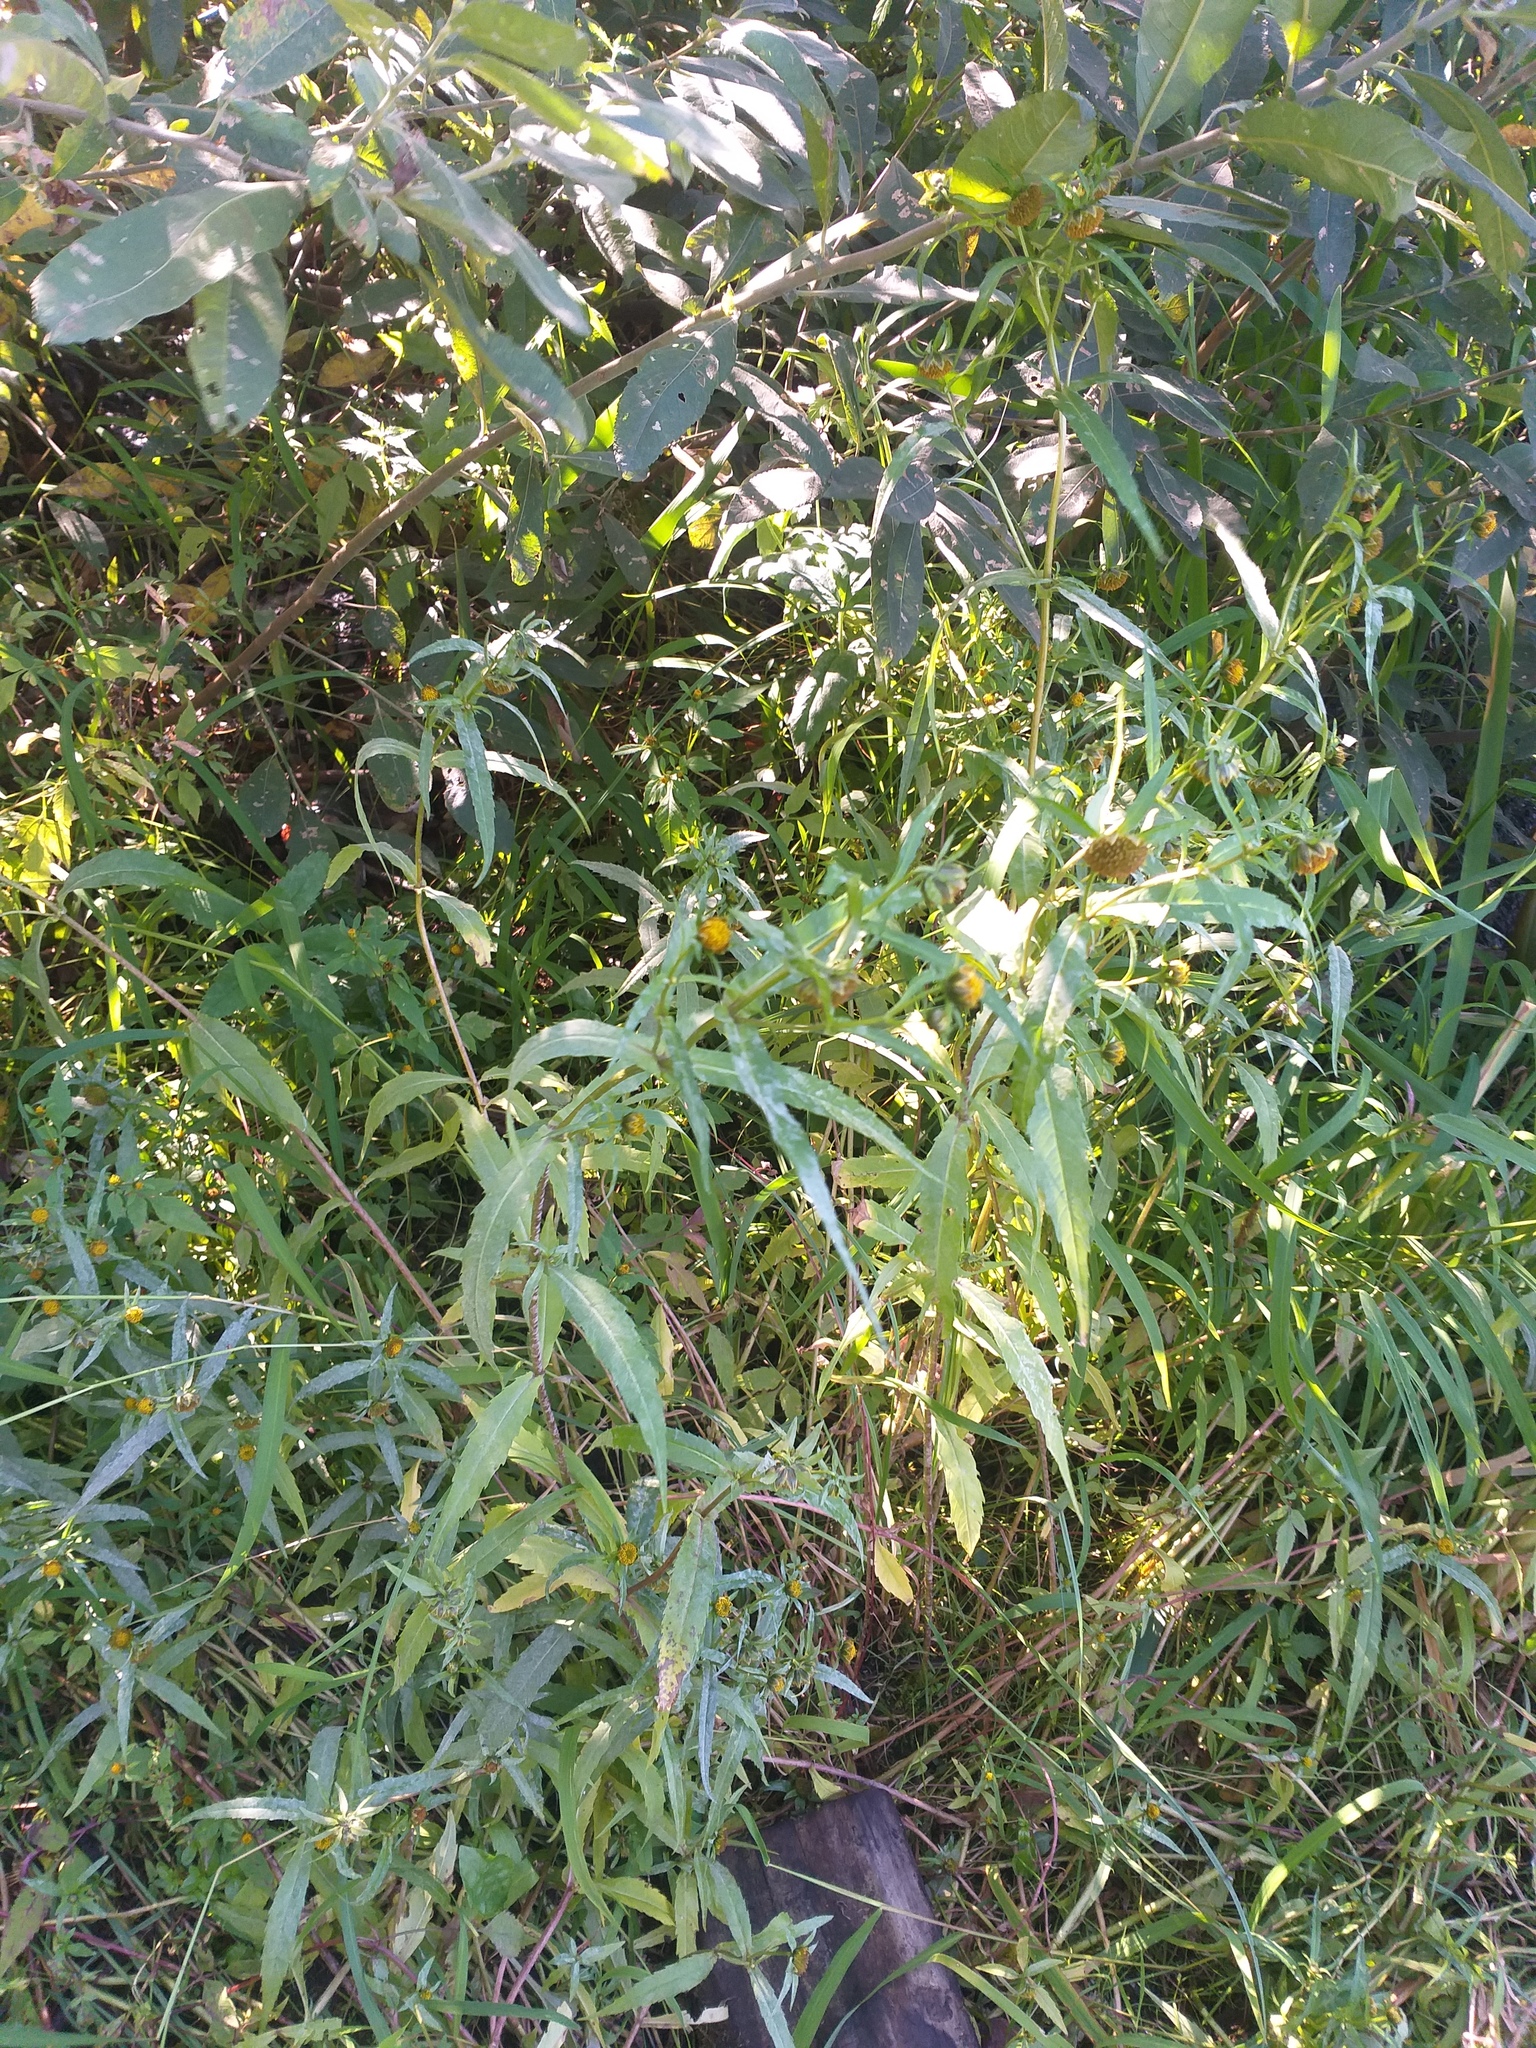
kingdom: Plantae
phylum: Tracheophyta
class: Magnoliopsida
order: Asterales
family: Asteraceae
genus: Bidens
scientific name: Bidens cernua
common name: Nodding bur-marigold
